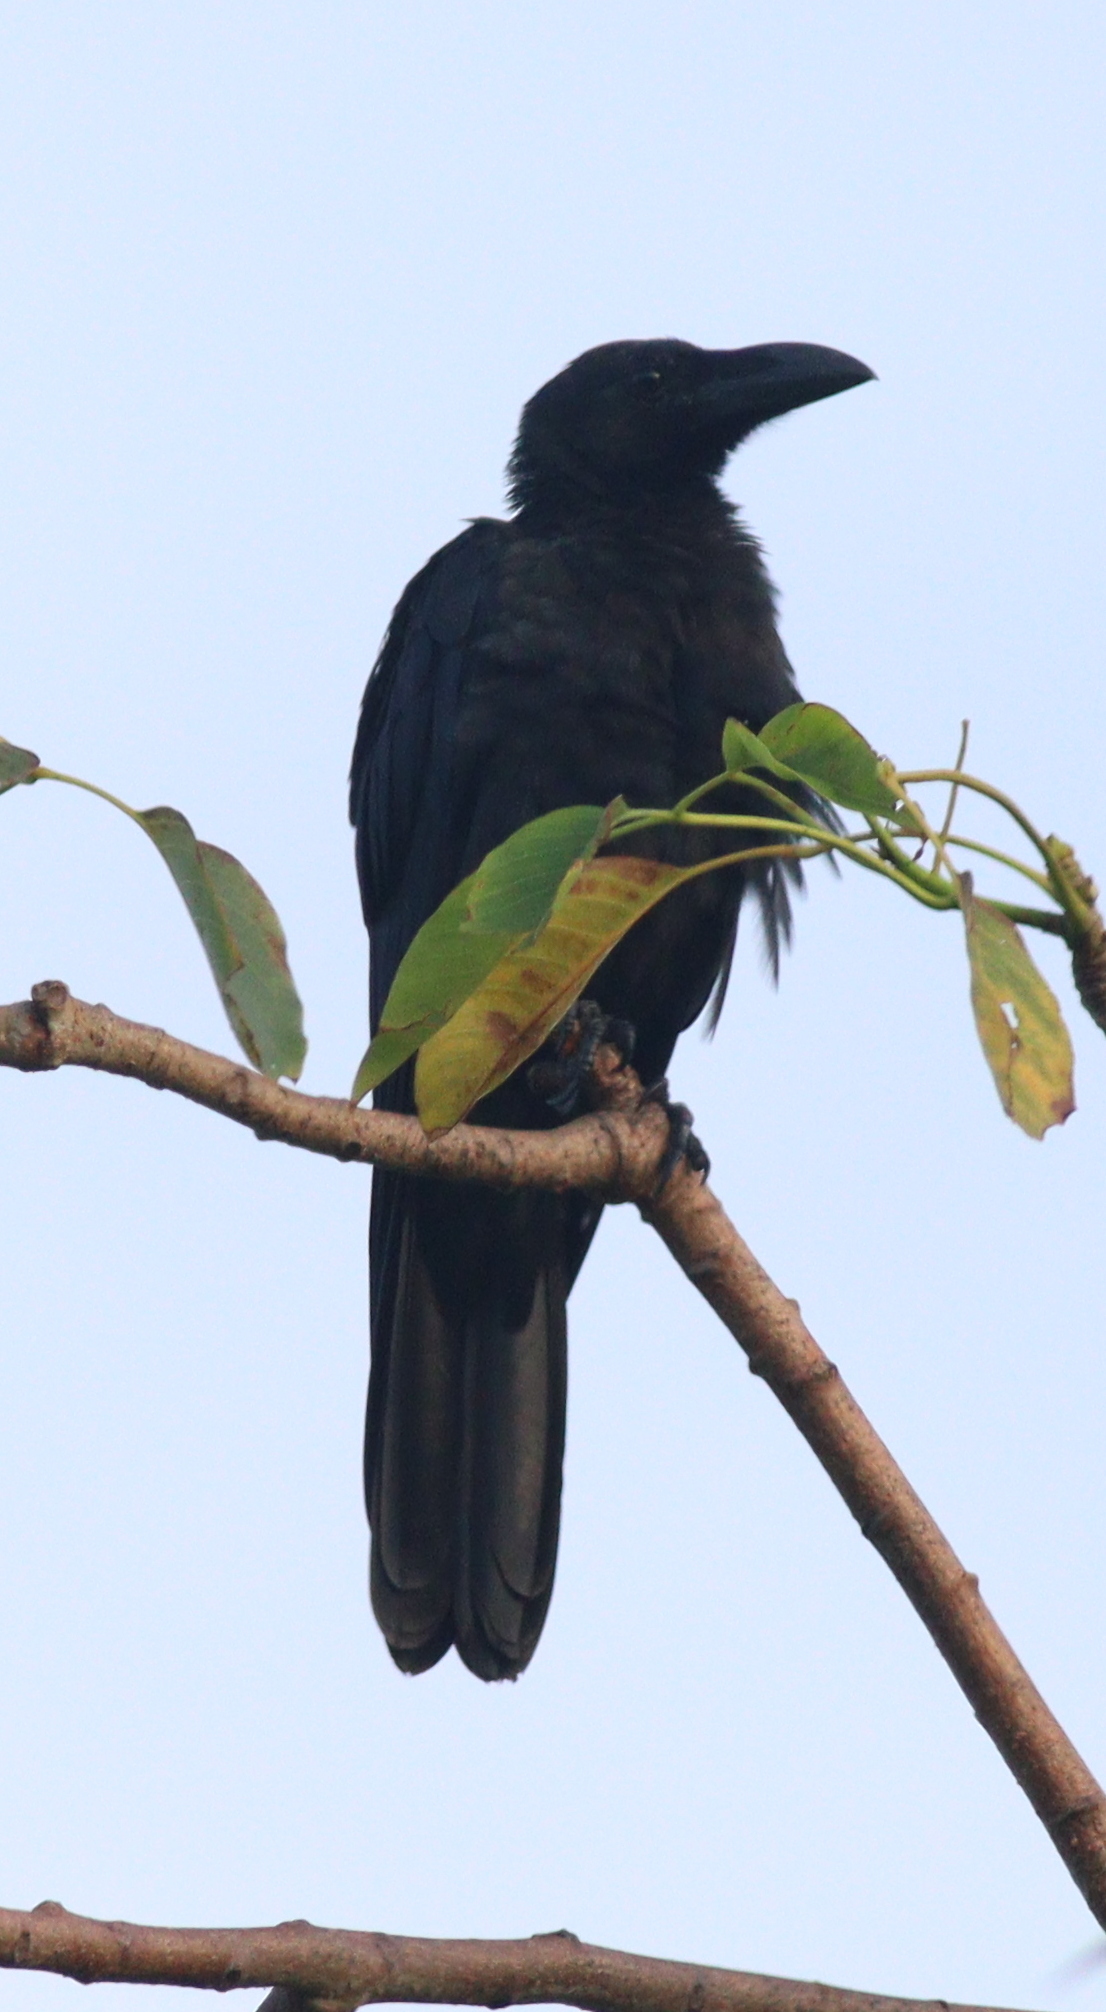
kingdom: Animalia
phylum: Chordata
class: Aves
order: Passeriformes
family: Corvidae
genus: Corvus
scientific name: Corvus macrorhynchos
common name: Large-billed crow
